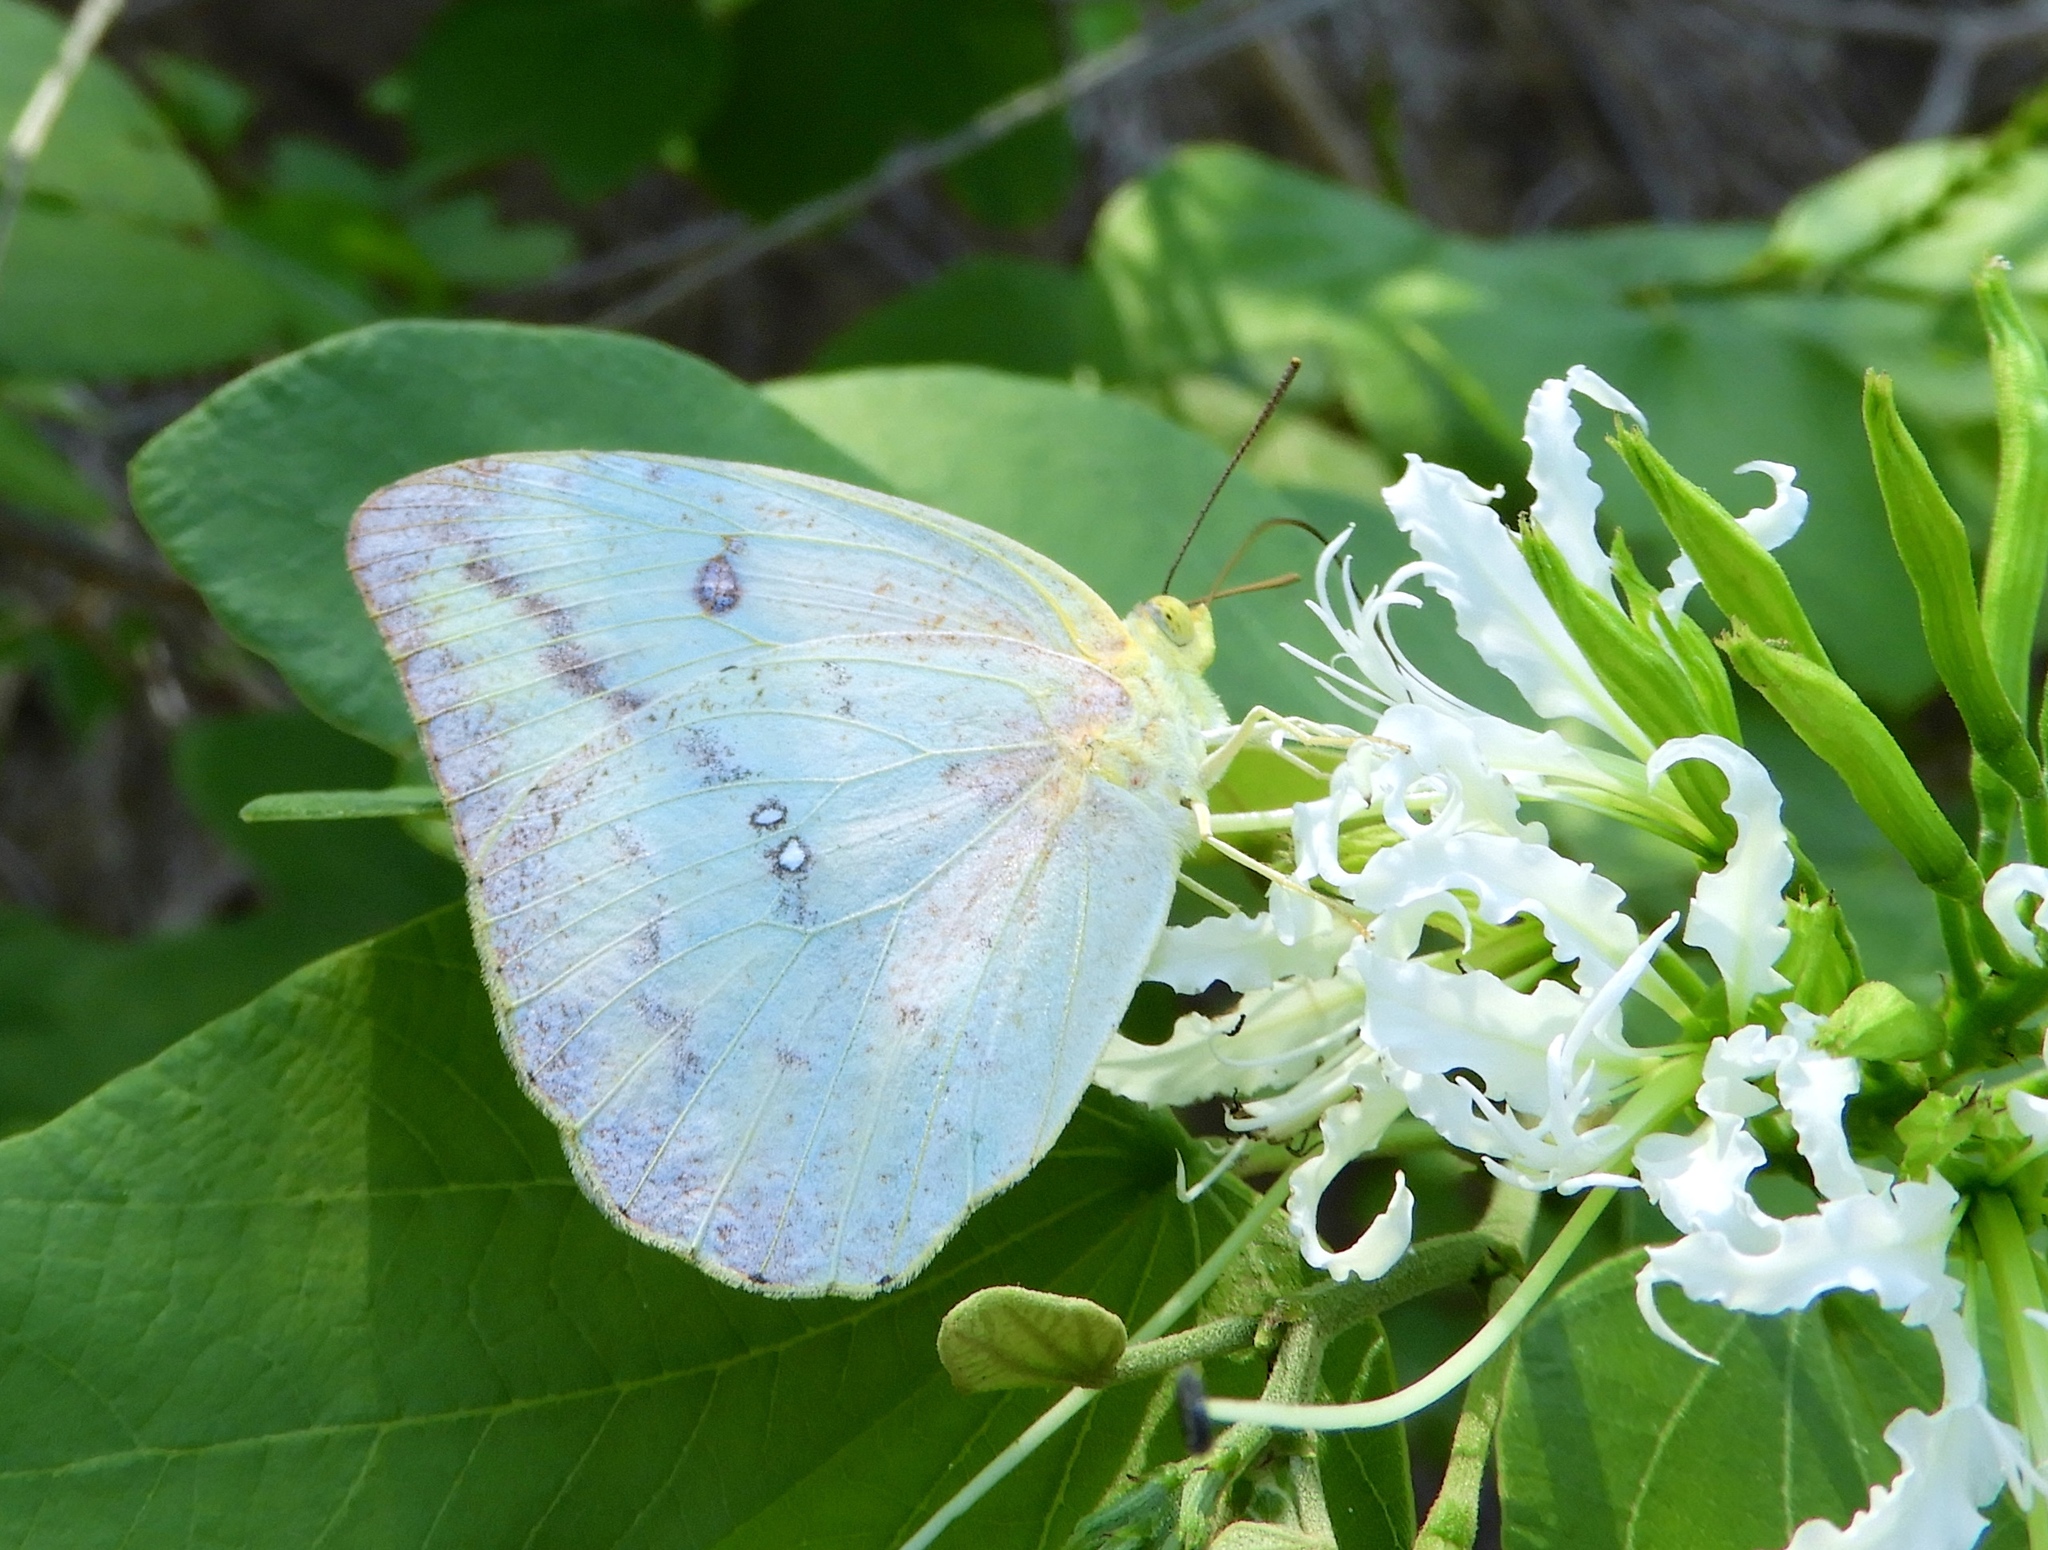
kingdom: Animalia
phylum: Arthropoda
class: Insecta
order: Lepidoptera
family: Pieridae
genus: Phoebis
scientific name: Phoebis agarithe
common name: Large orange sulphur
